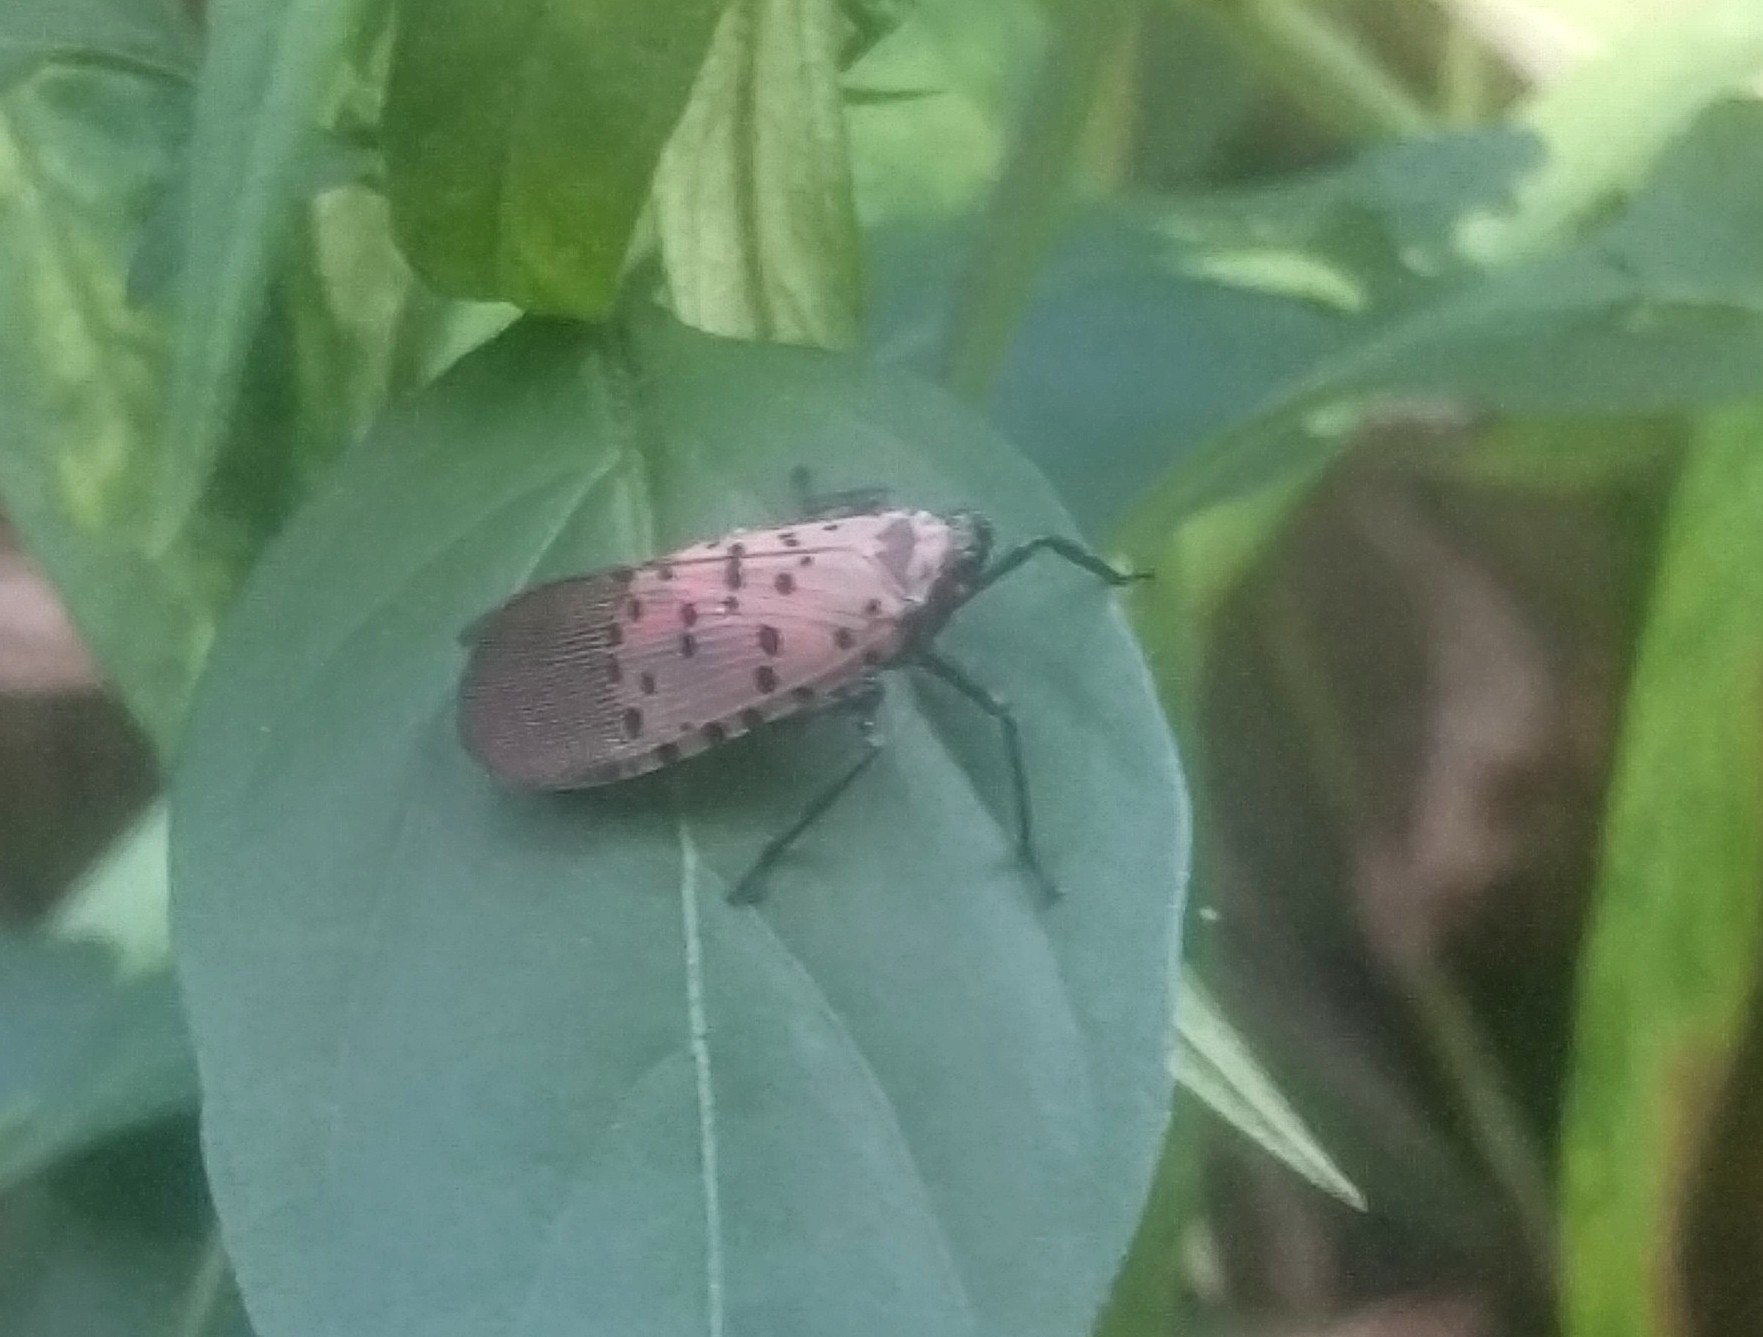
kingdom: Animalia
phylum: Arthropoda
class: Insecta
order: Hemiptera
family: Fulgoridae
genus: Lycorma
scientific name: Lycorma delicatula
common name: Spotted lanternfly
